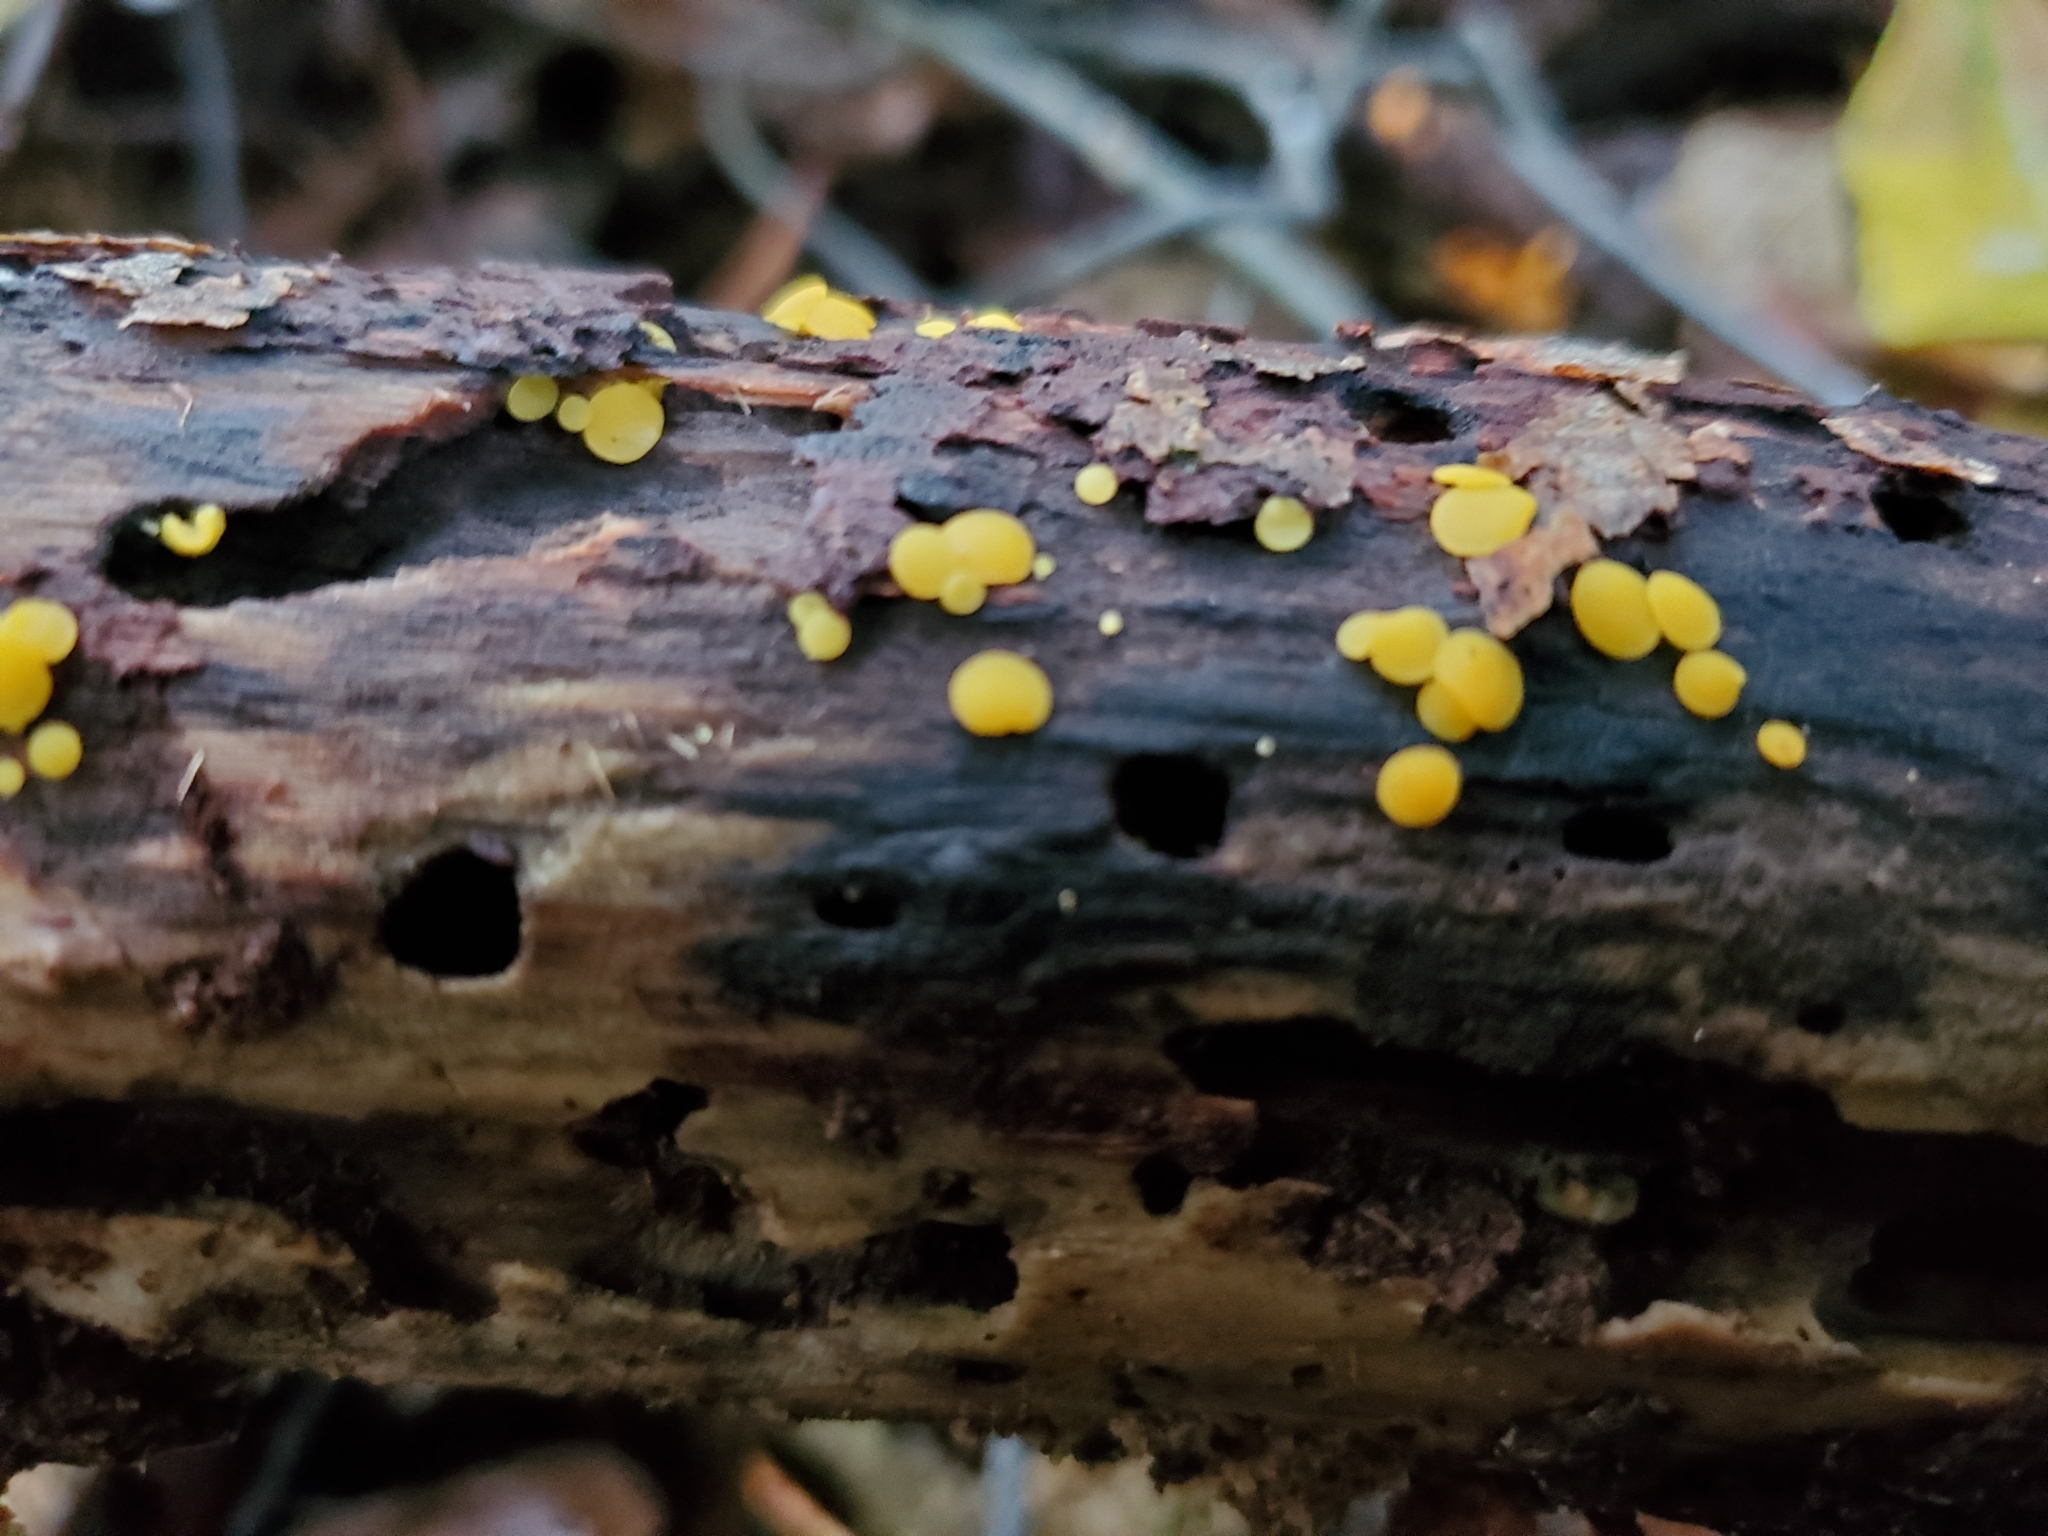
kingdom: Fungi
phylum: Ascomycota
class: Leotiomycetes
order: Helotiales
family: Pezizellaceae
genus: Calycina
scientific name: Calycina citrina
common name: Yellow fairy cups
